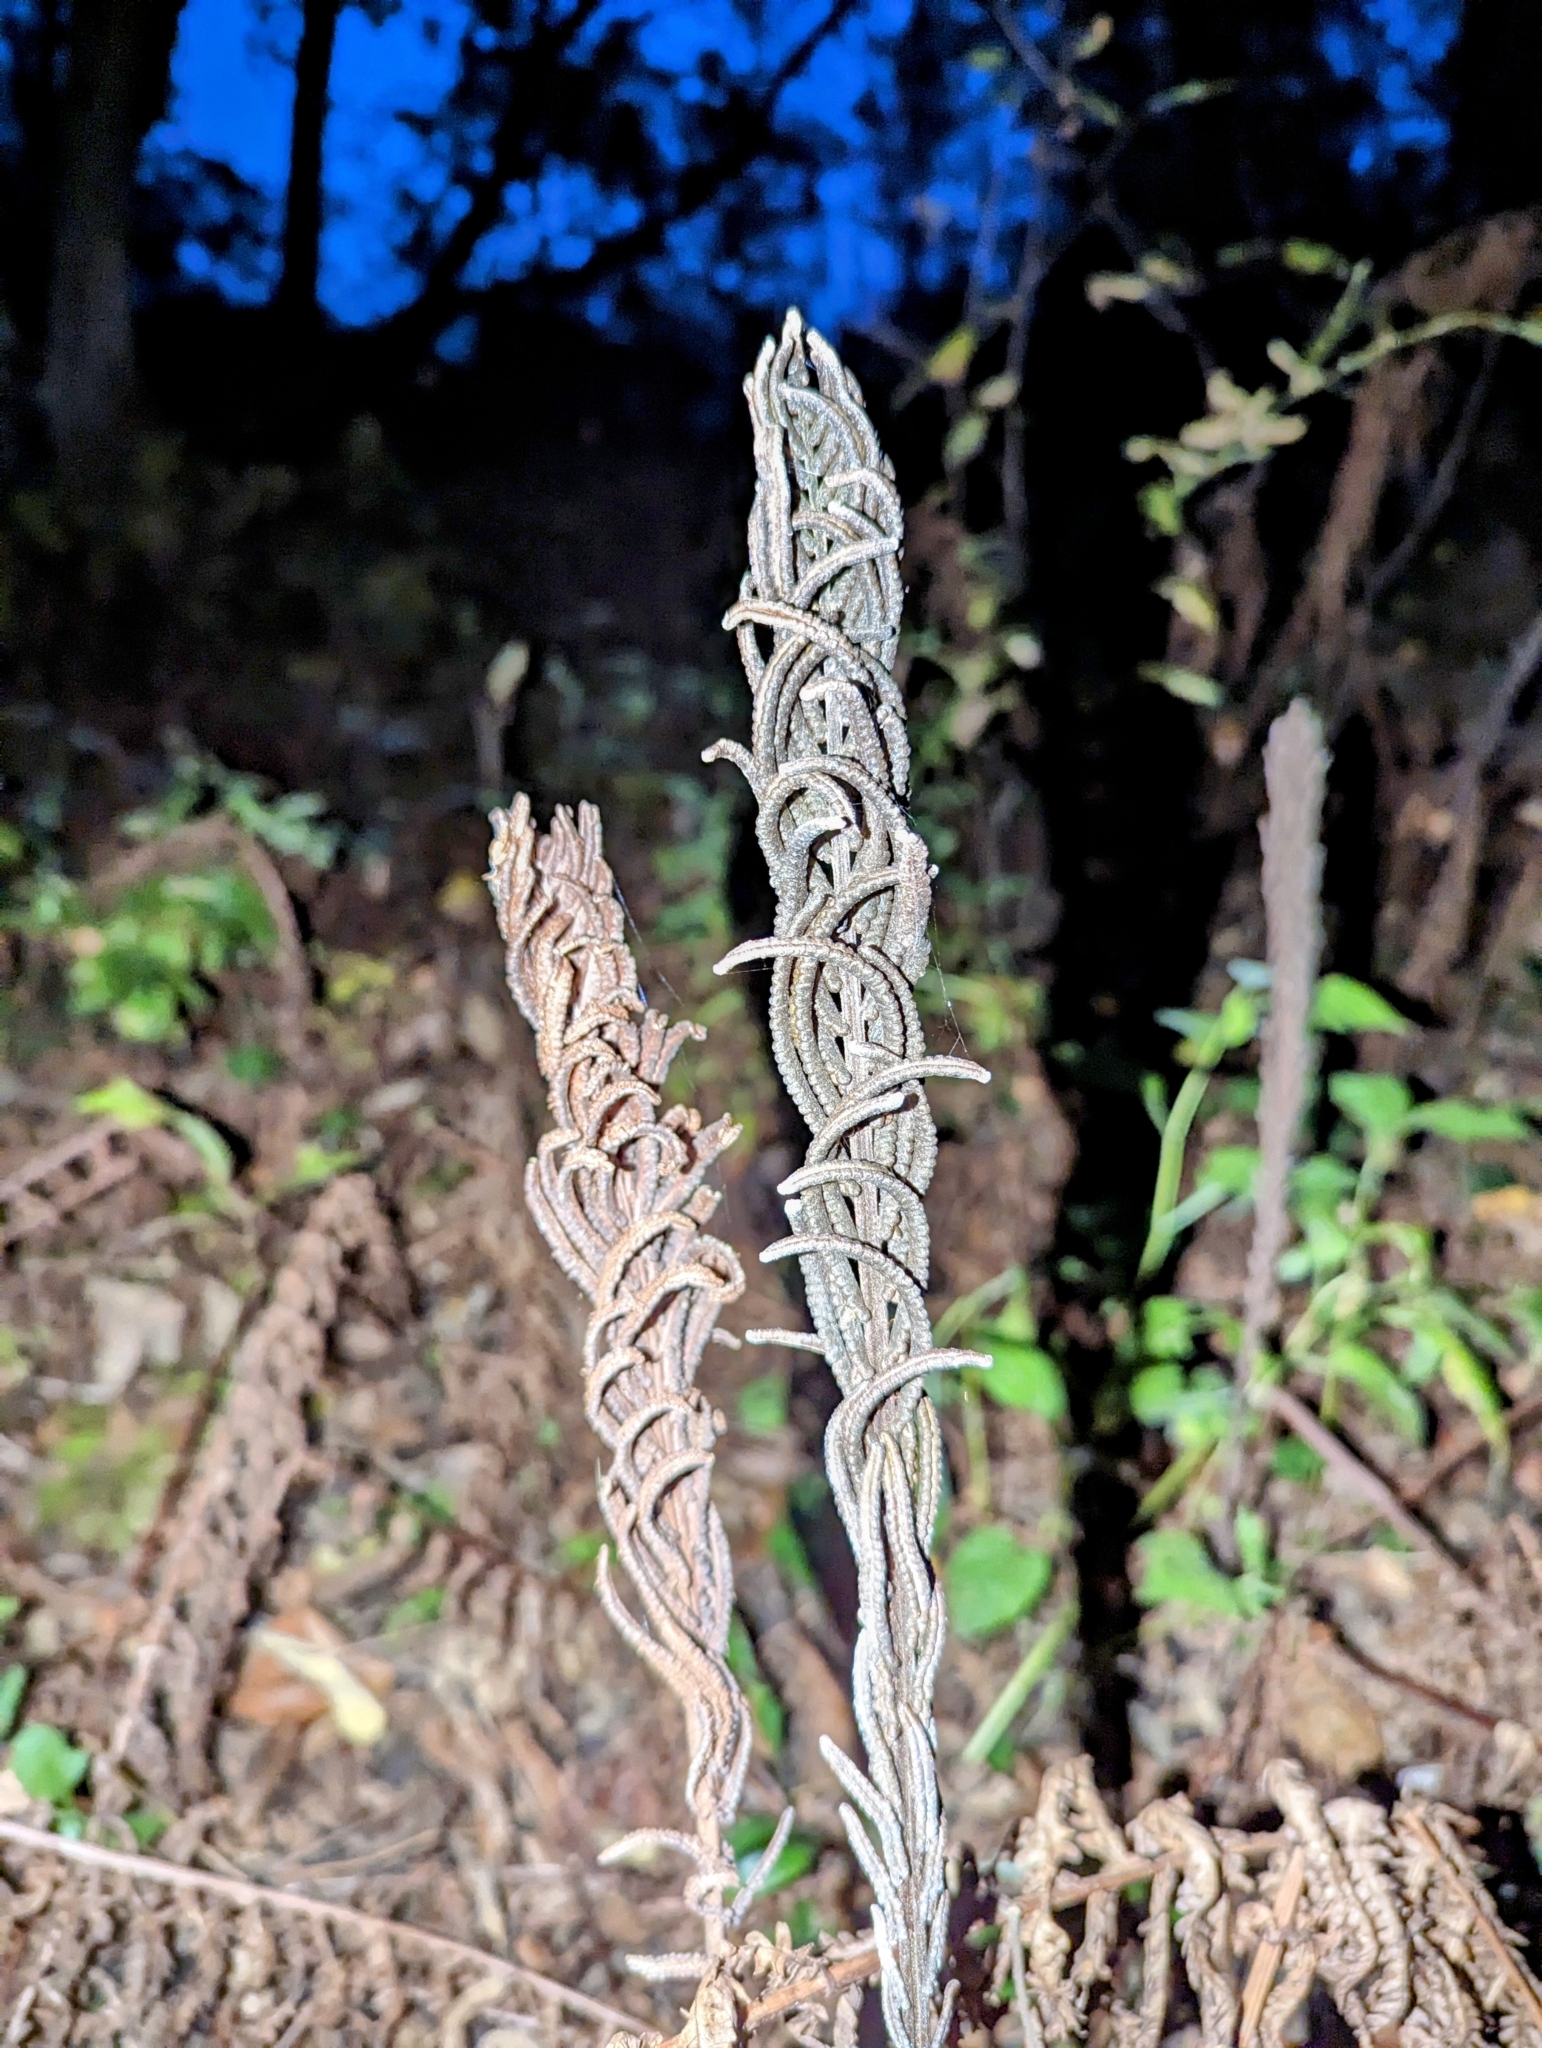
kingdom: Plantae
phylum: Tracheophyta
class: Polypodiopsida
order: Polypodiales
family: Onocleaceae
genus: Matteuccia
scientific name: Matteuccia struthiopteris
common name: Ostrich fern
